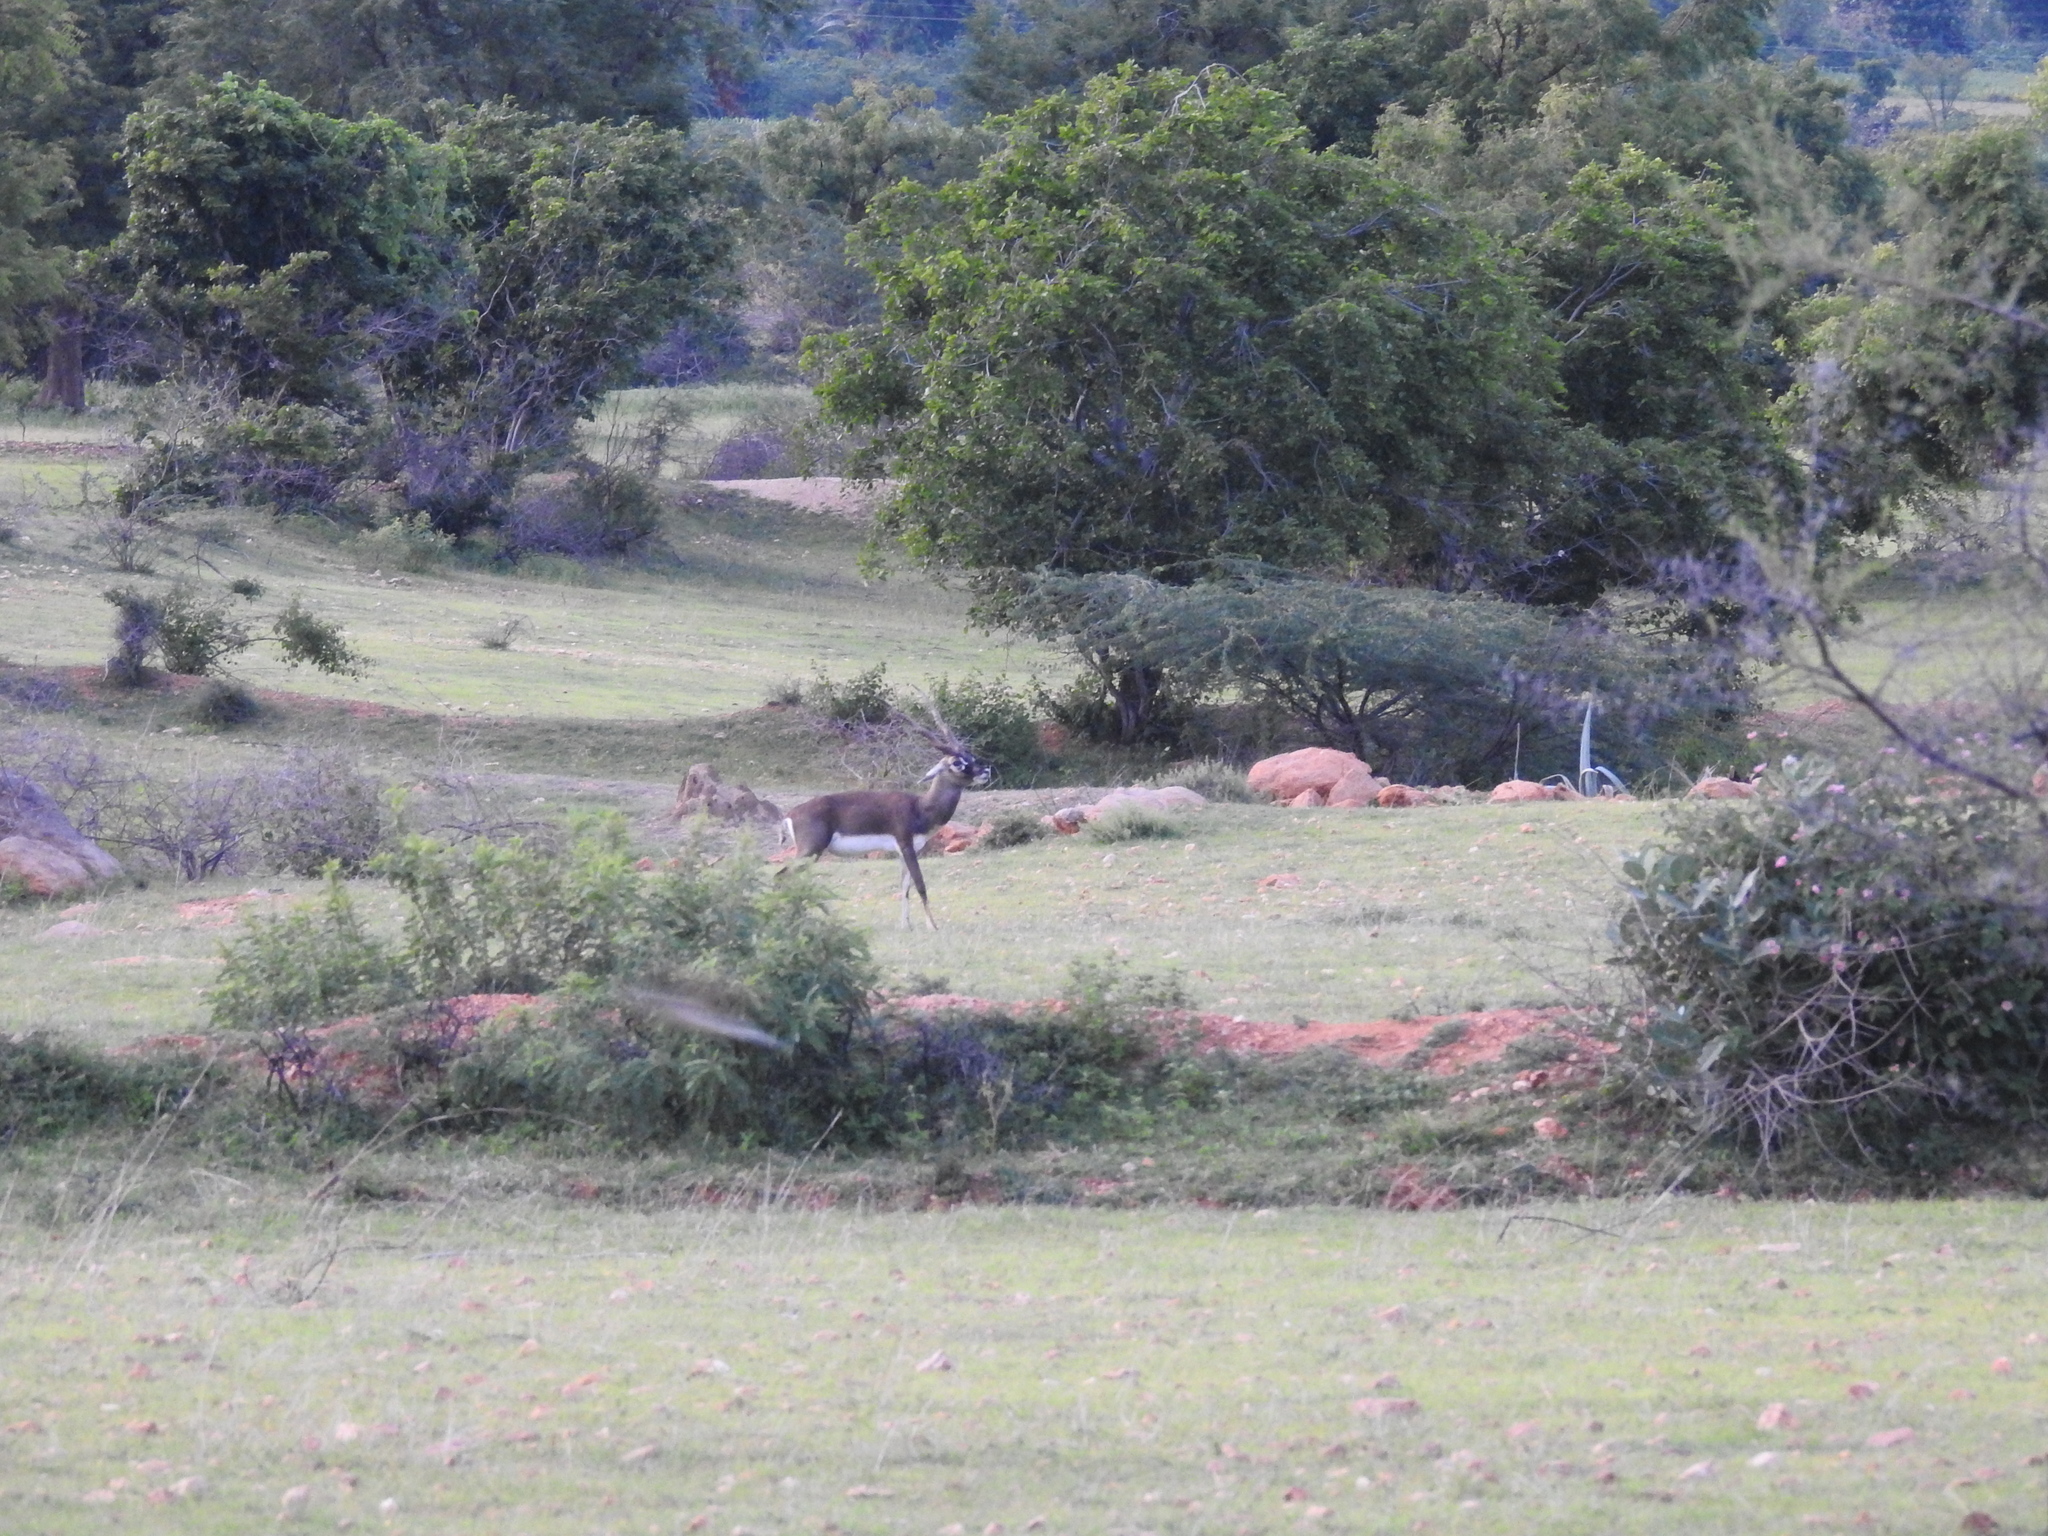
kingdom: Animalia
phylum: Chordata
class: Mammalia
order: Artiodactyla
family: Bovidae
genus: Antilope
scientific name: Antilope cervicapra
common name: Blackbuck
